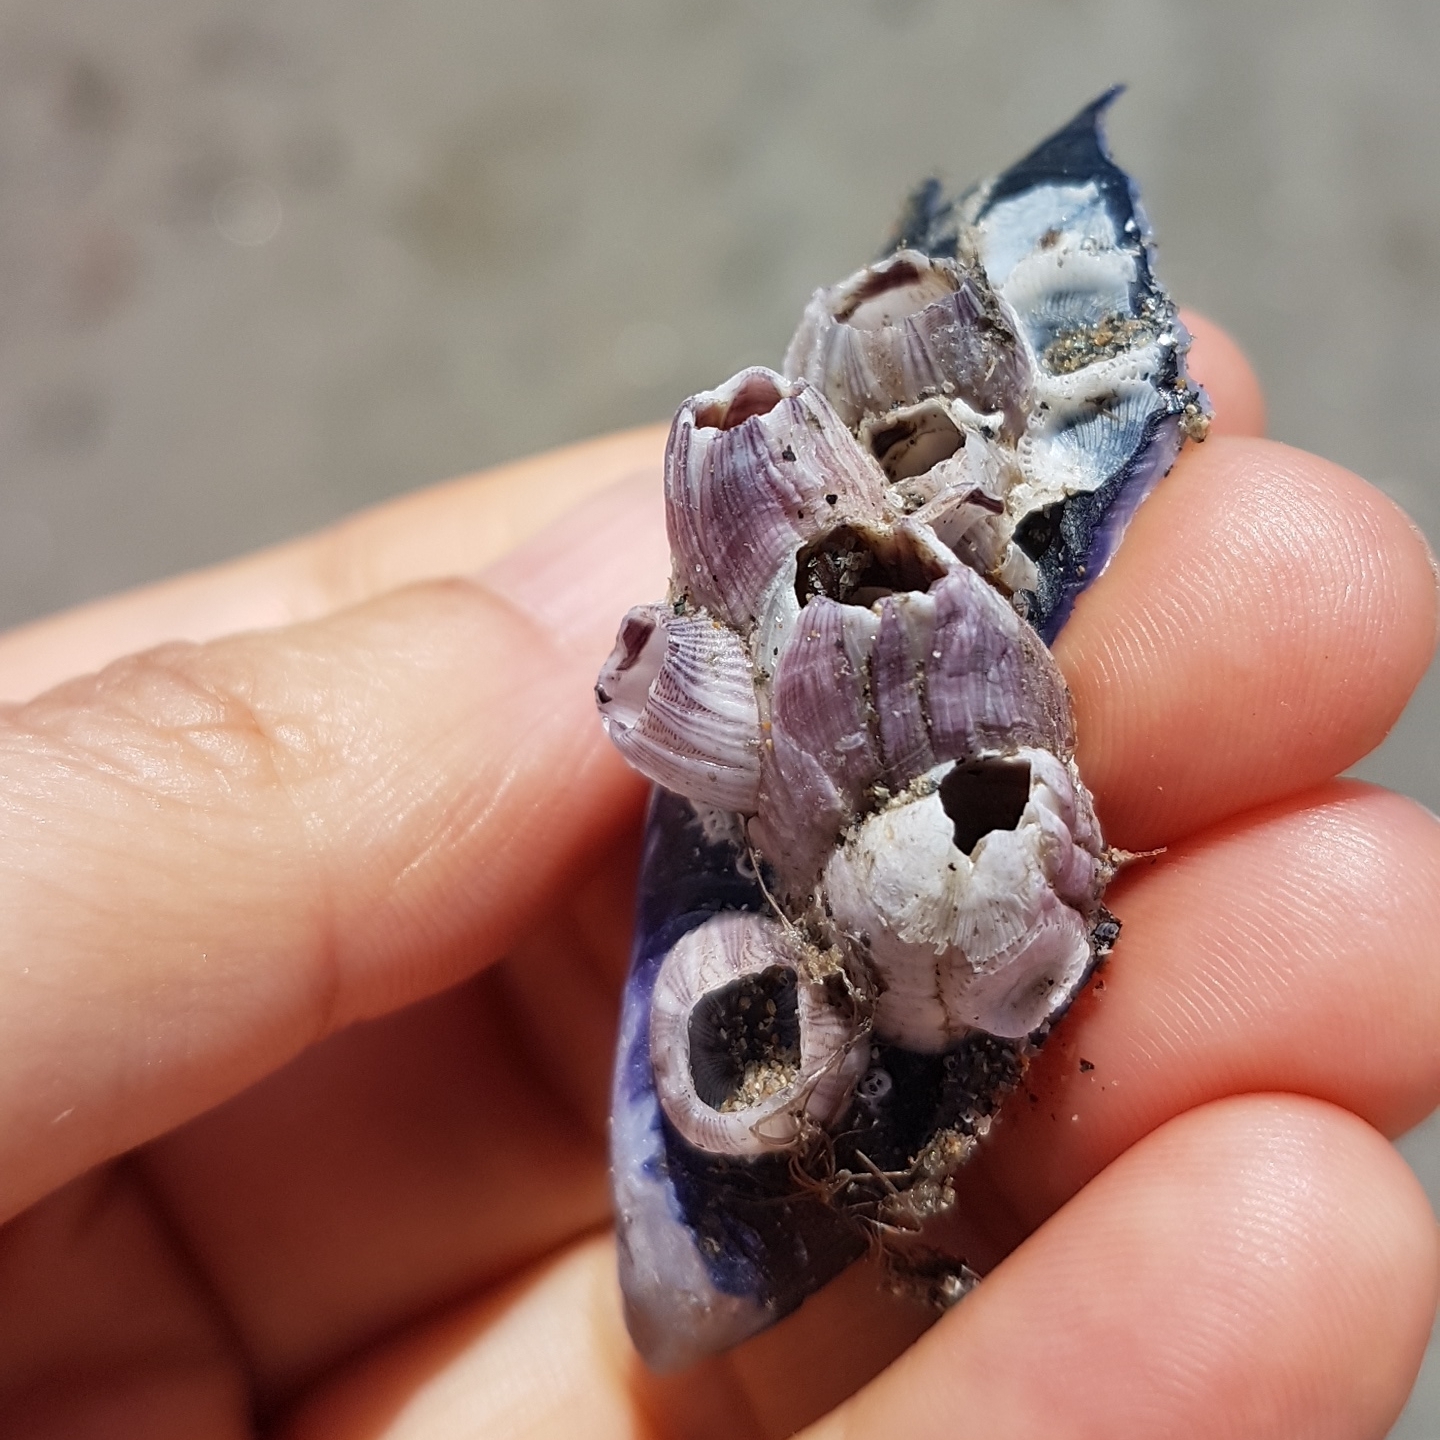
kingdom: Animalia
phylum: Arthropoda
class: Maxillopoda
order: Sessilia
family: Balanidae
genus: Balanus
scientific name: Balanus trigonus
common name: Triangle barnacle
